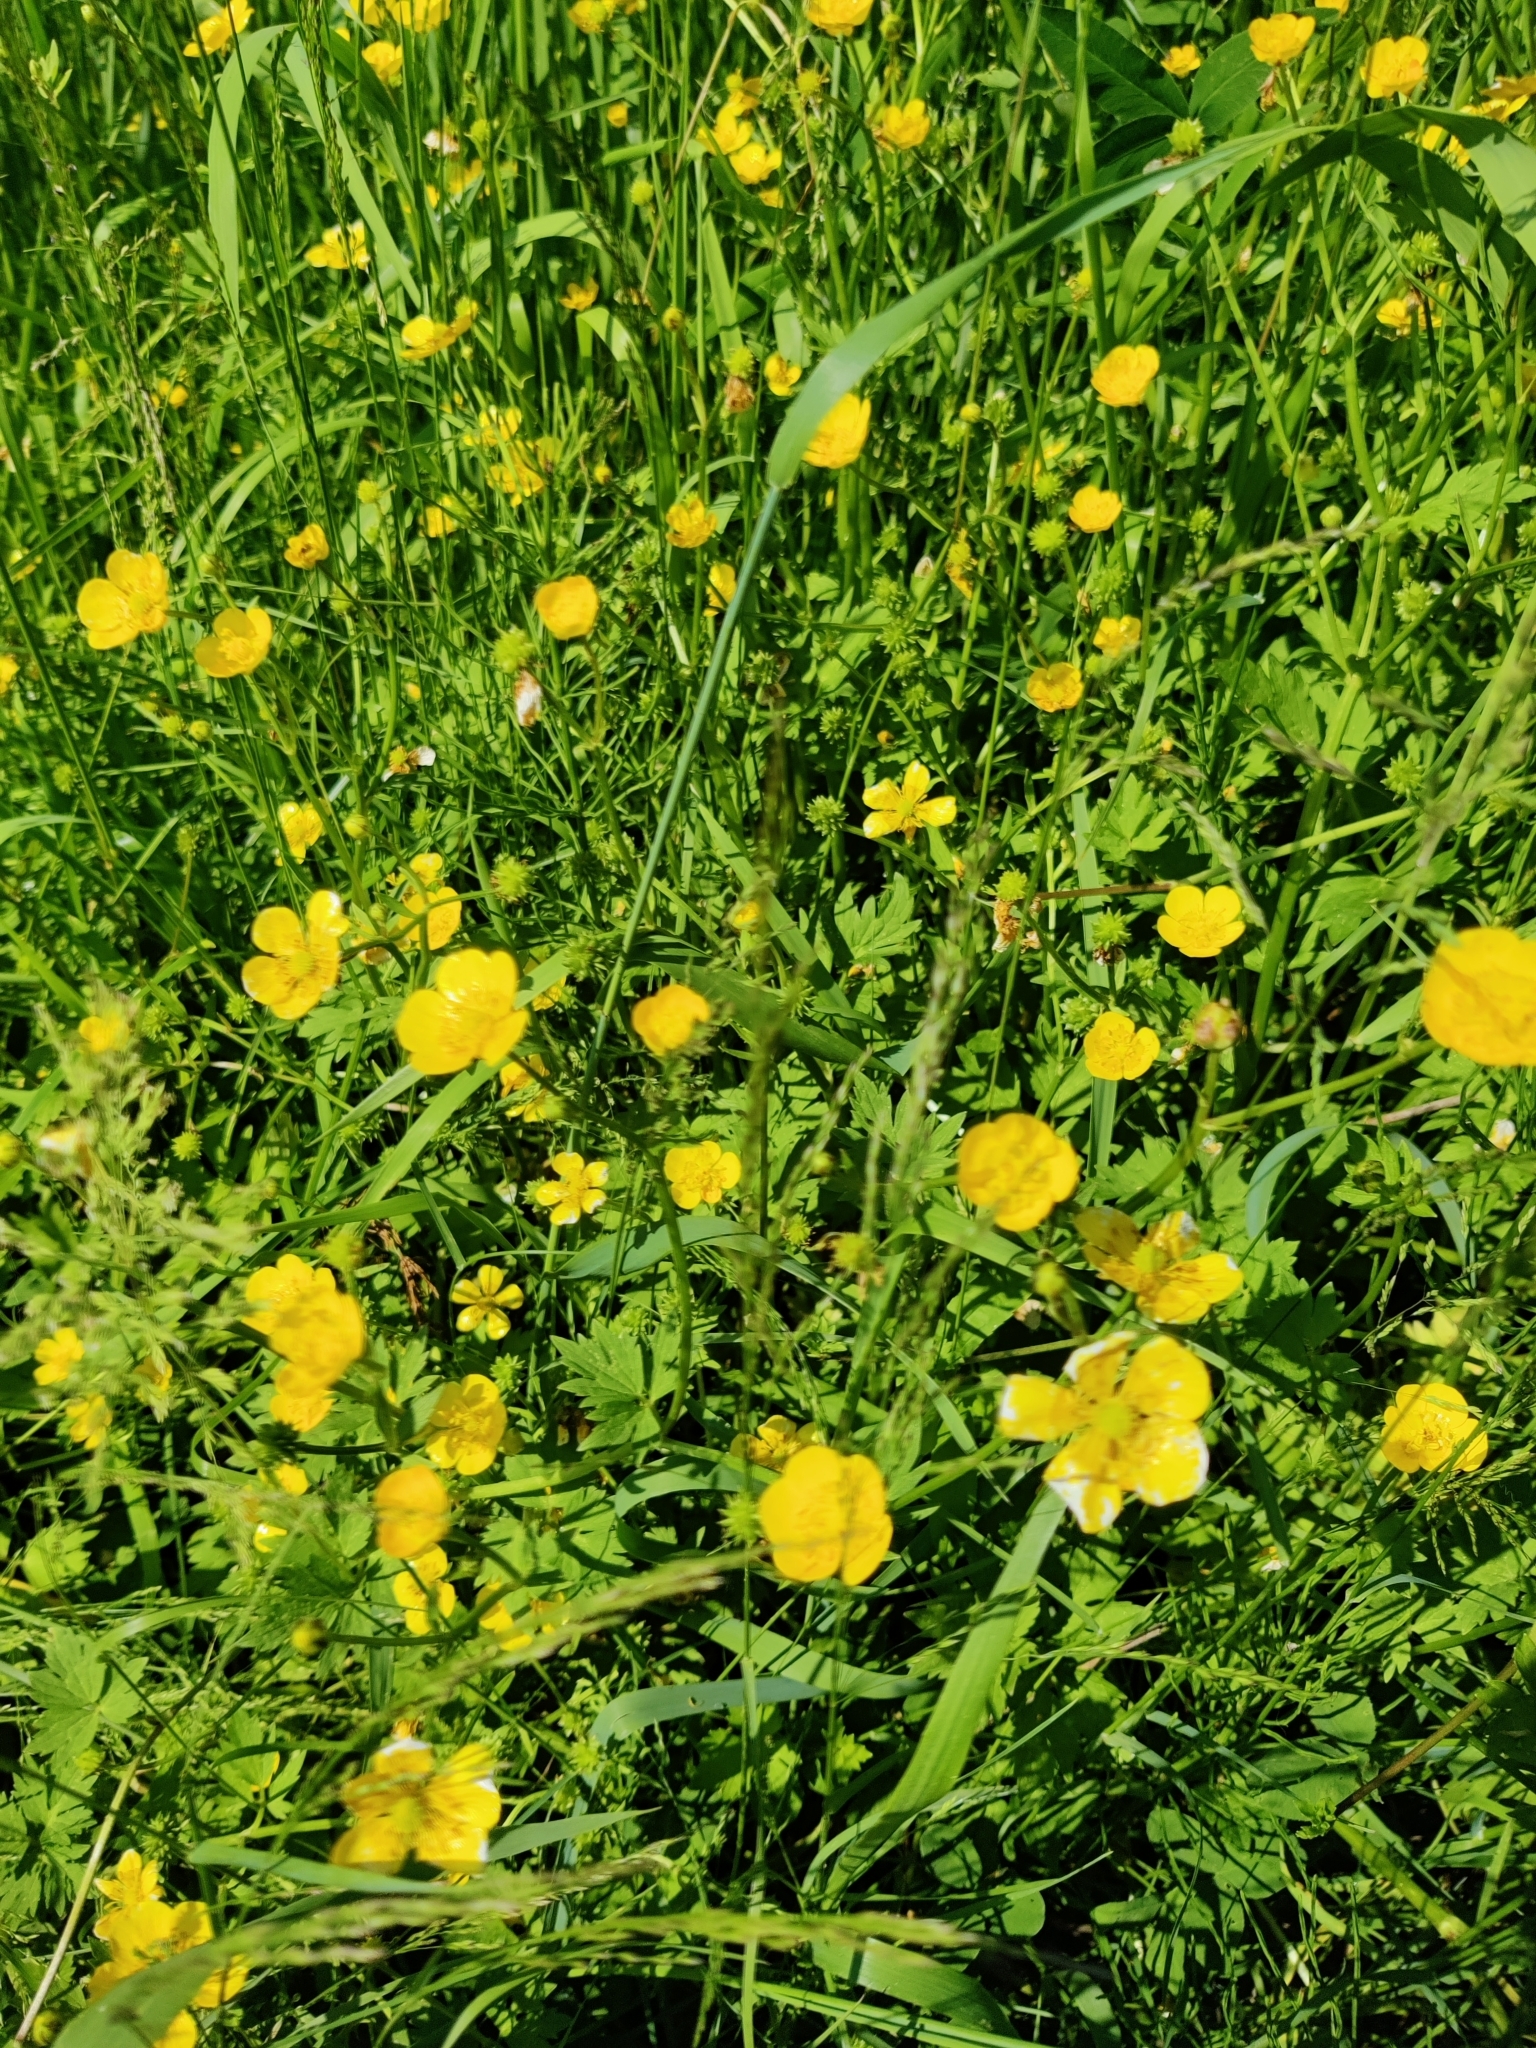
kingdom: Plantae
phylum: Tracheophyta
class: Magnoliopsida
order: Ranunculales
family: Ranunculaceae
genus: Ranunculus
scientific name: Ranunculus repens
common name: Creeping buttercup
